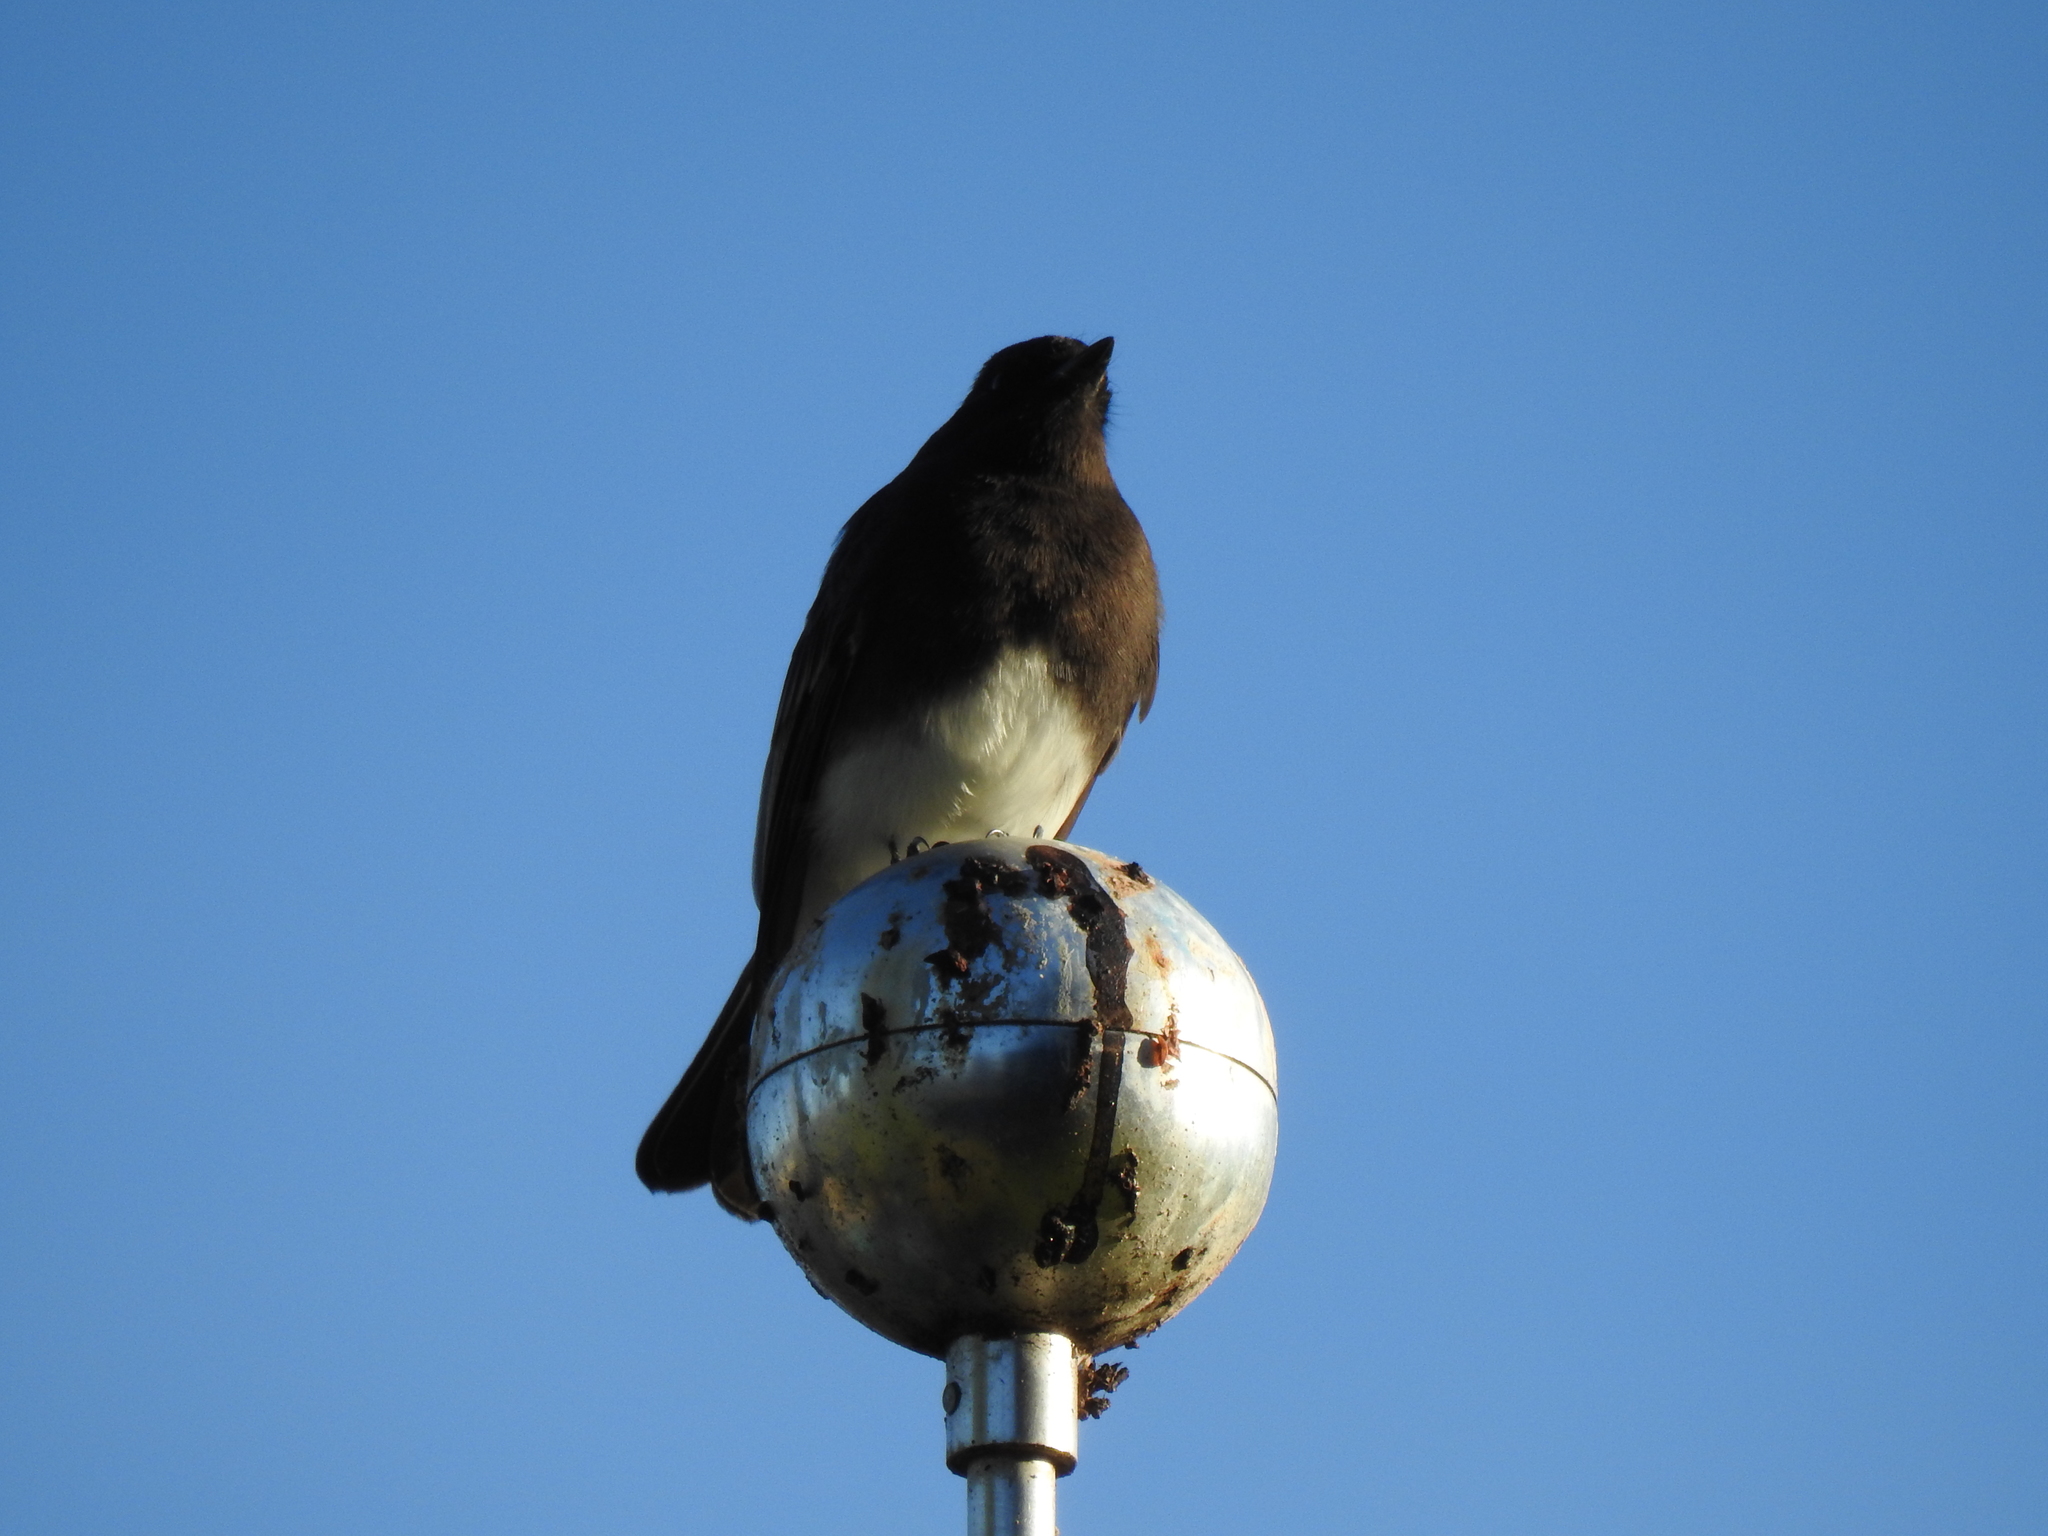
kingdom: Animalia
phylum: Chordata
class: Aves
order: Passeriformes
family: Tyrannidae
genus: Sayornis
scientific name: Sayornis nigricans
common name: Black phoebe
